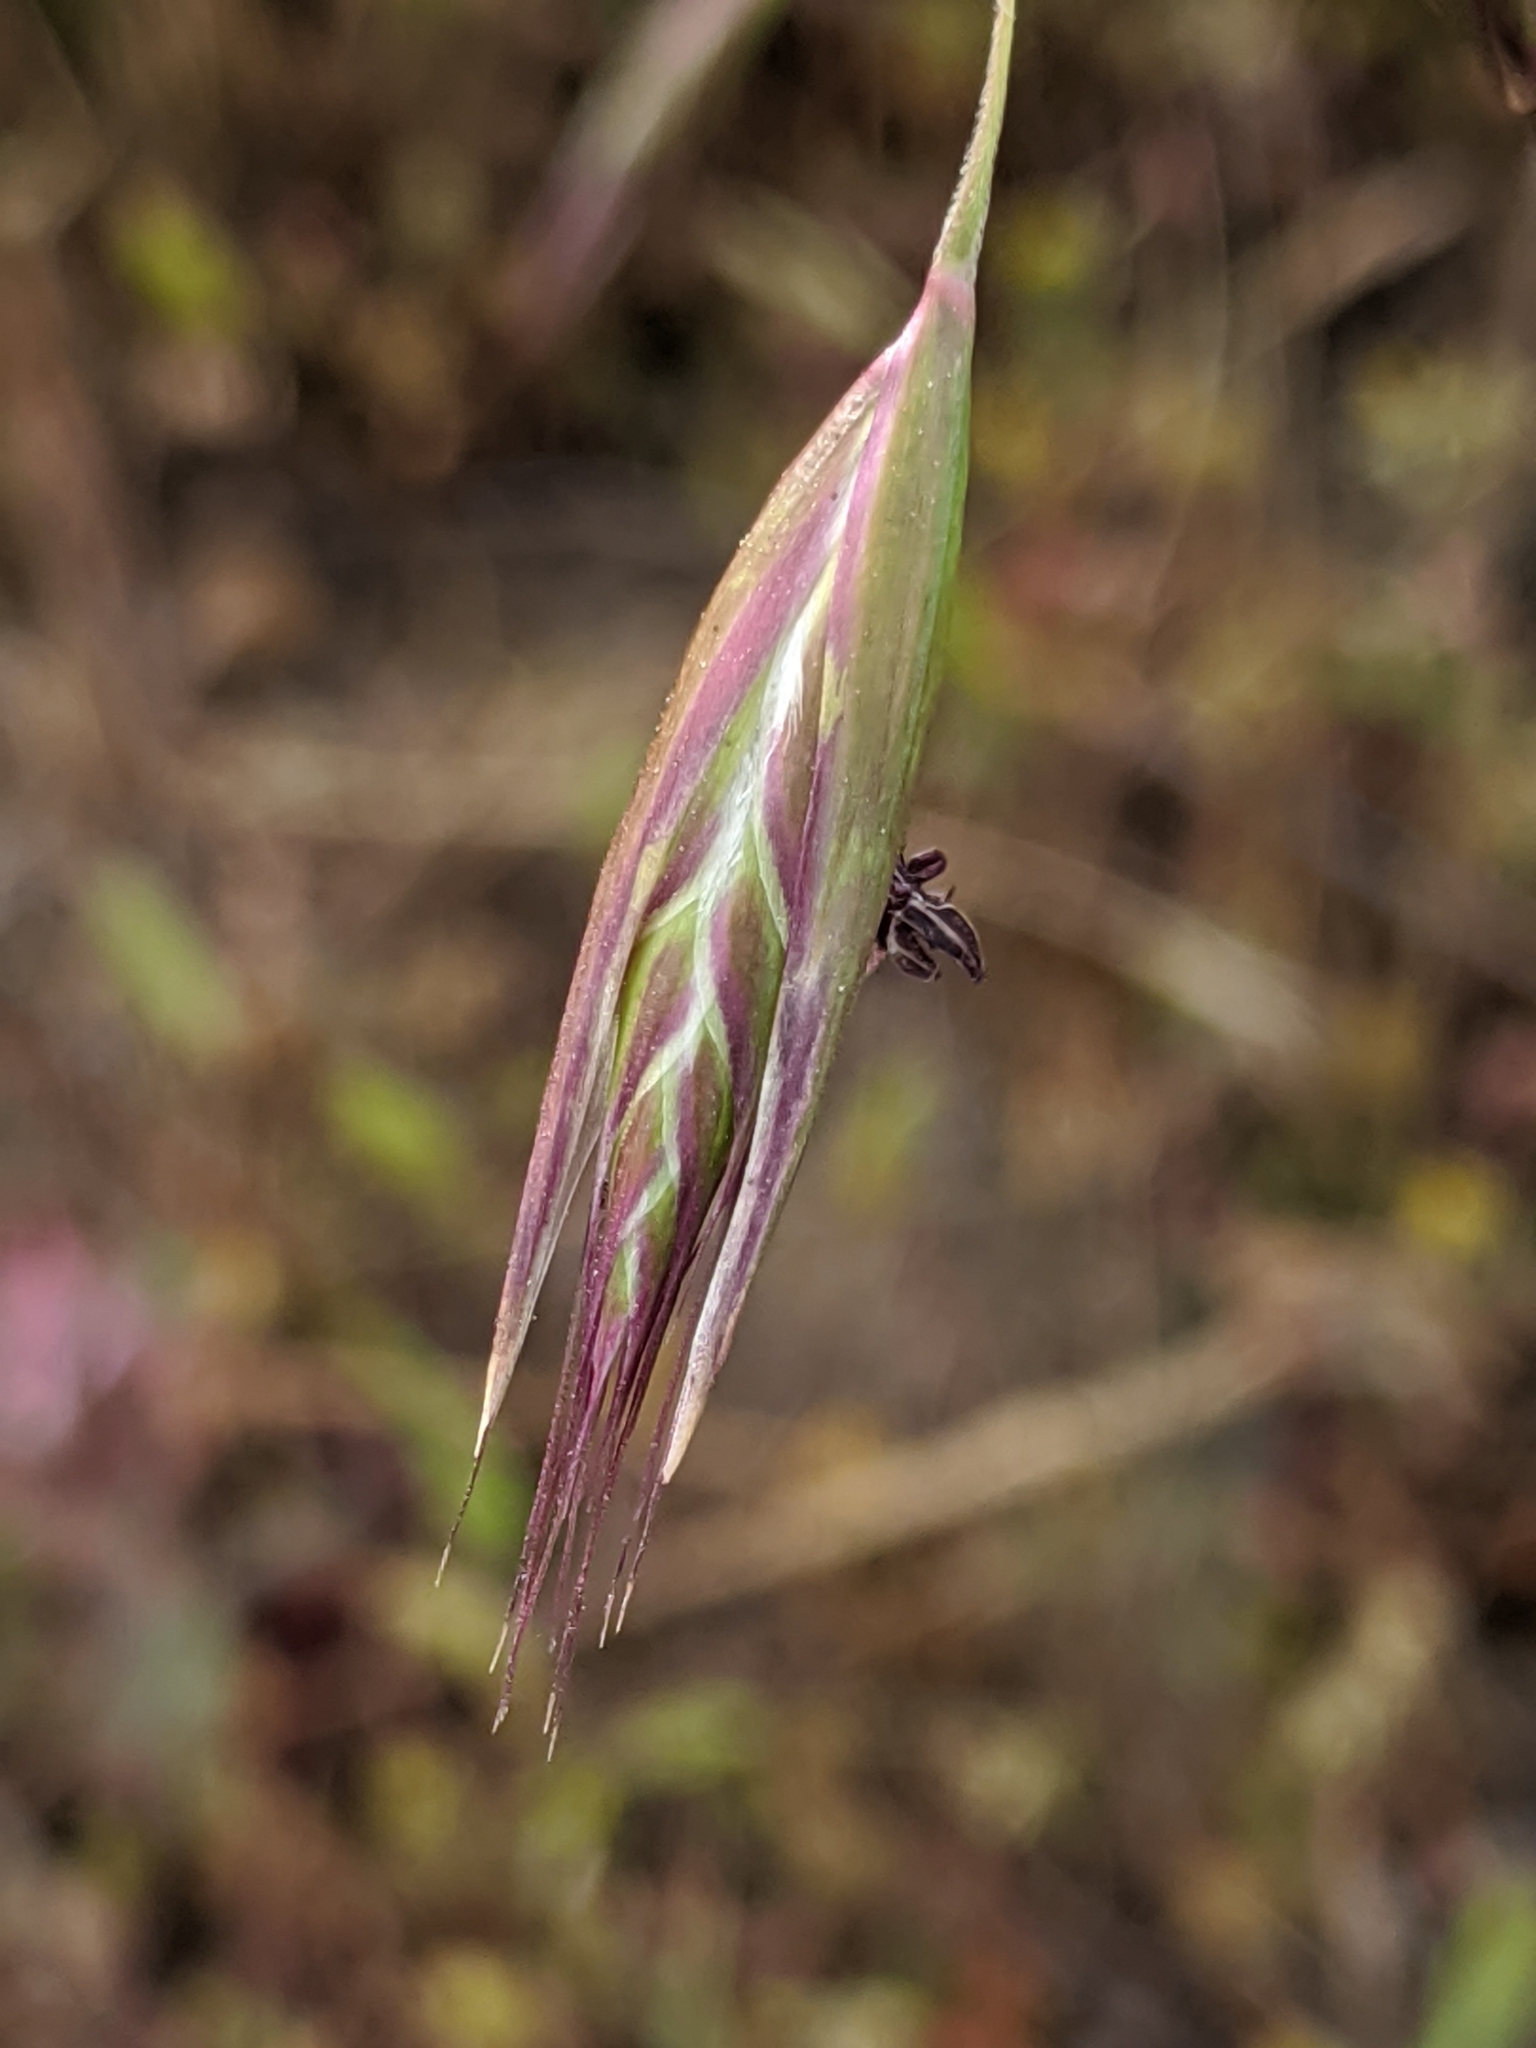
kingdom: Plantae
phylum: Tracheophyta
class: Liliopsida
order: Poales
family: Poaceae
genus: Danthonia
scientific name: Danthonia californica
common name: California oat grass
